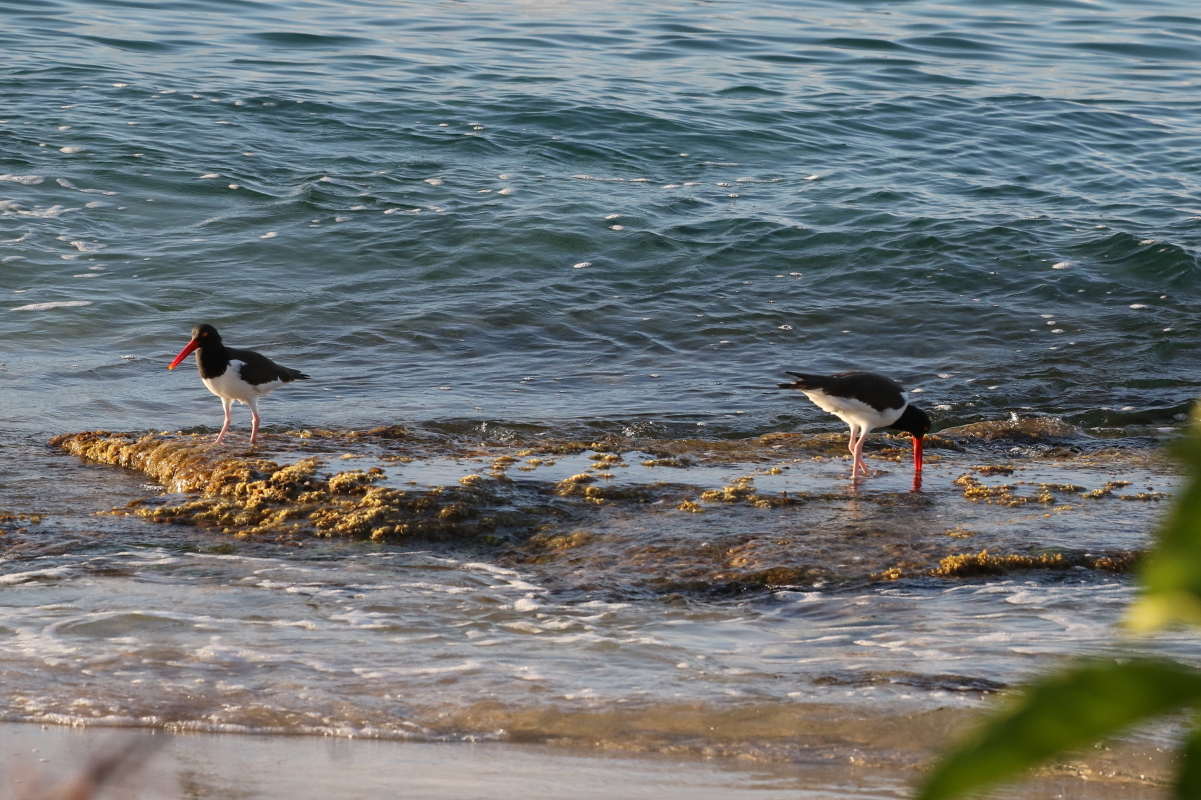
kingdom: Animalia
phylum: Chordata
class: Aves
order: Charadriiformes
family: Haematopodidae
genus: Haematopus
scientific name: Haematopus palliatus
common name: American oystercatcher
